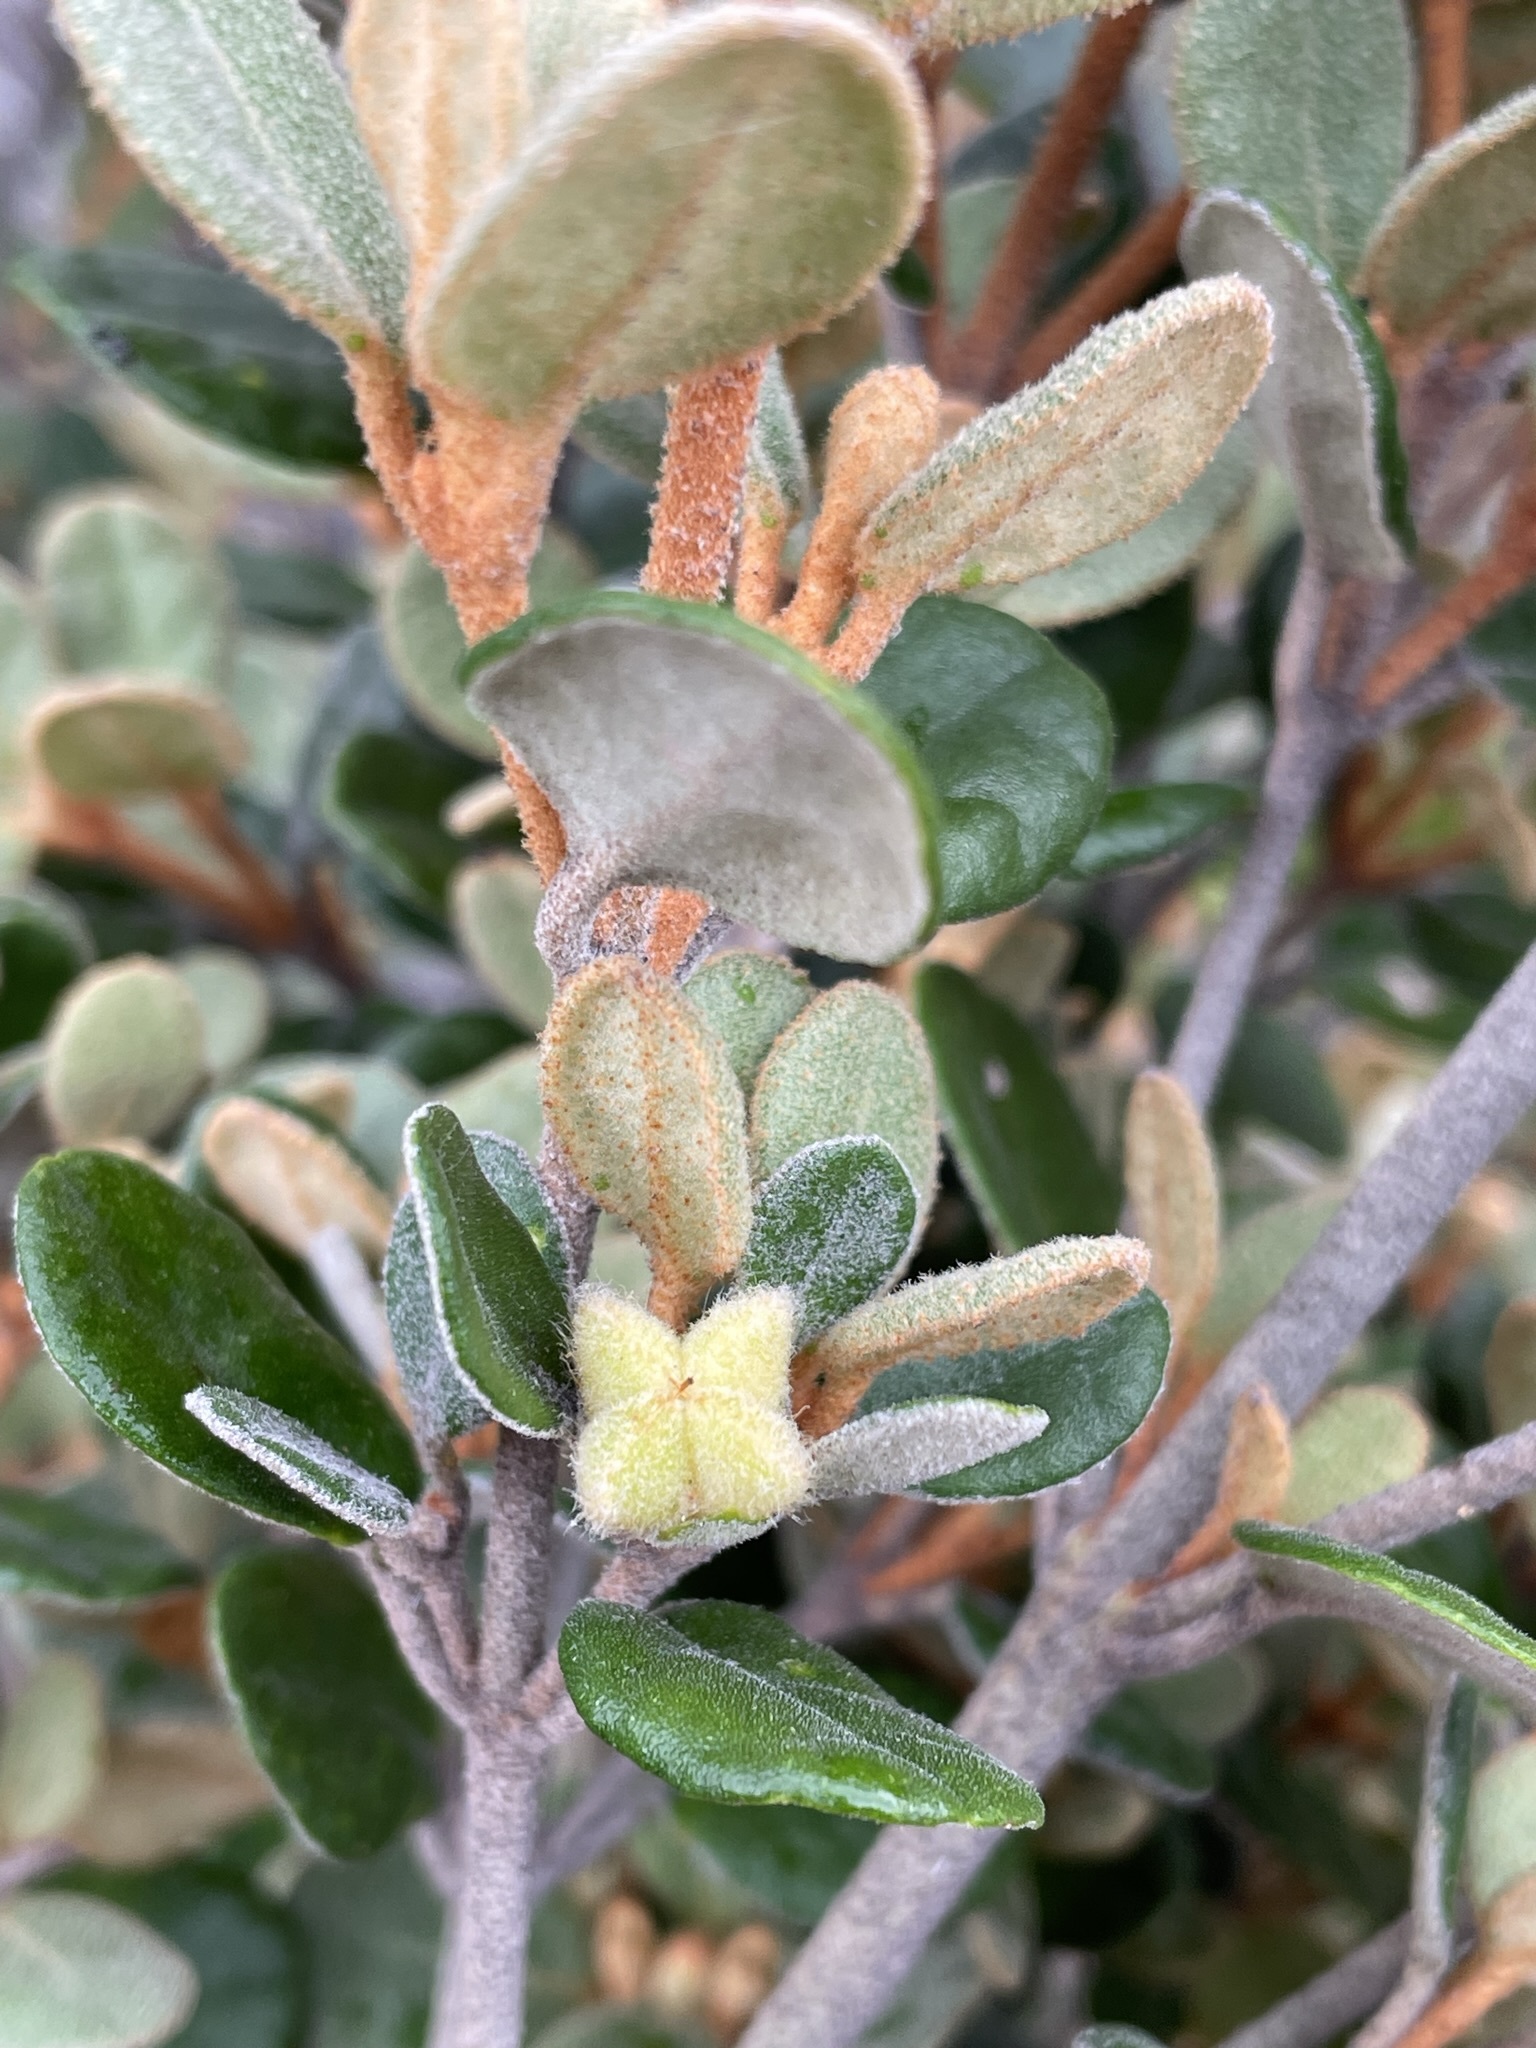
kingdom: Plantae
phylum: Tracheophyta
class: Magnoliopsida
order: Sapindales
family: Rutaceae
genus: Correa
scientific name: Correa alba
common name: White correa
